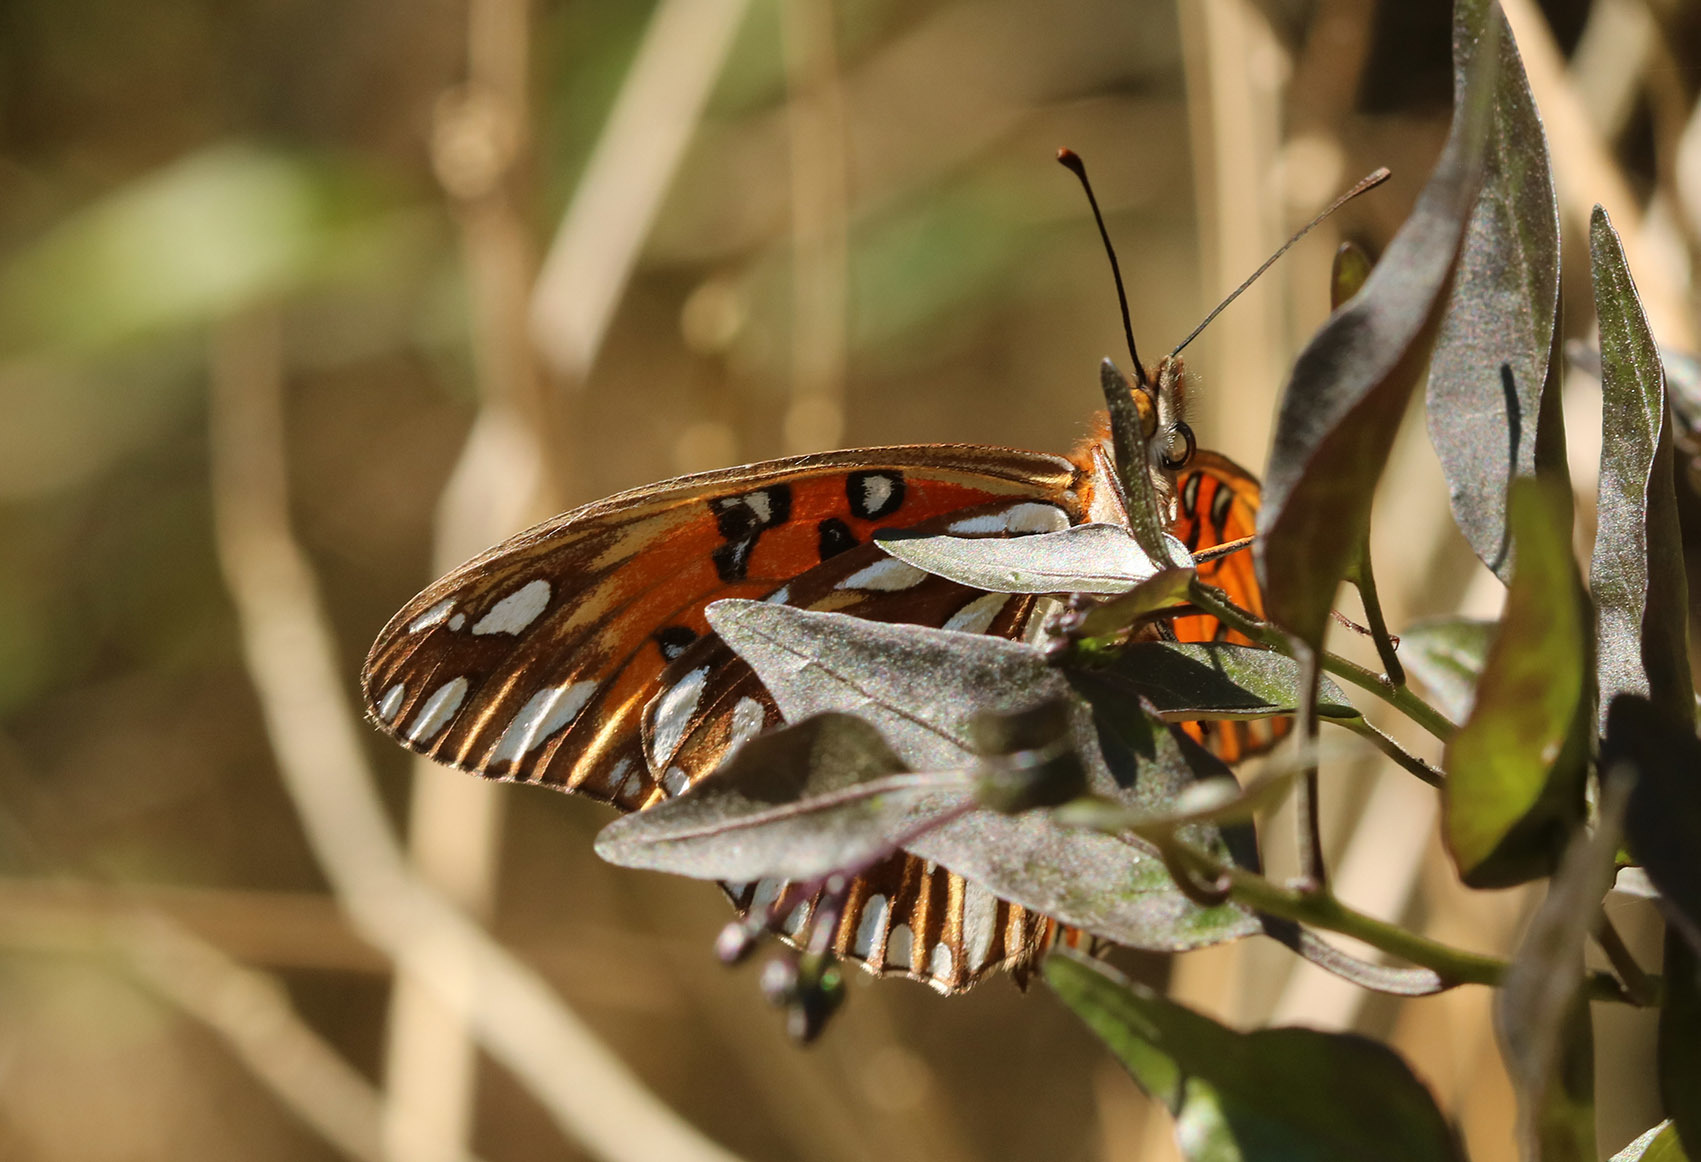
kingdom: Animalia
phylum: Arthropoda
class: Insecta
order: Lepidoptera
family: Nymphalidae
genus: Dione
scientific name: Dione vanillae
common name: Gulf fritillary
